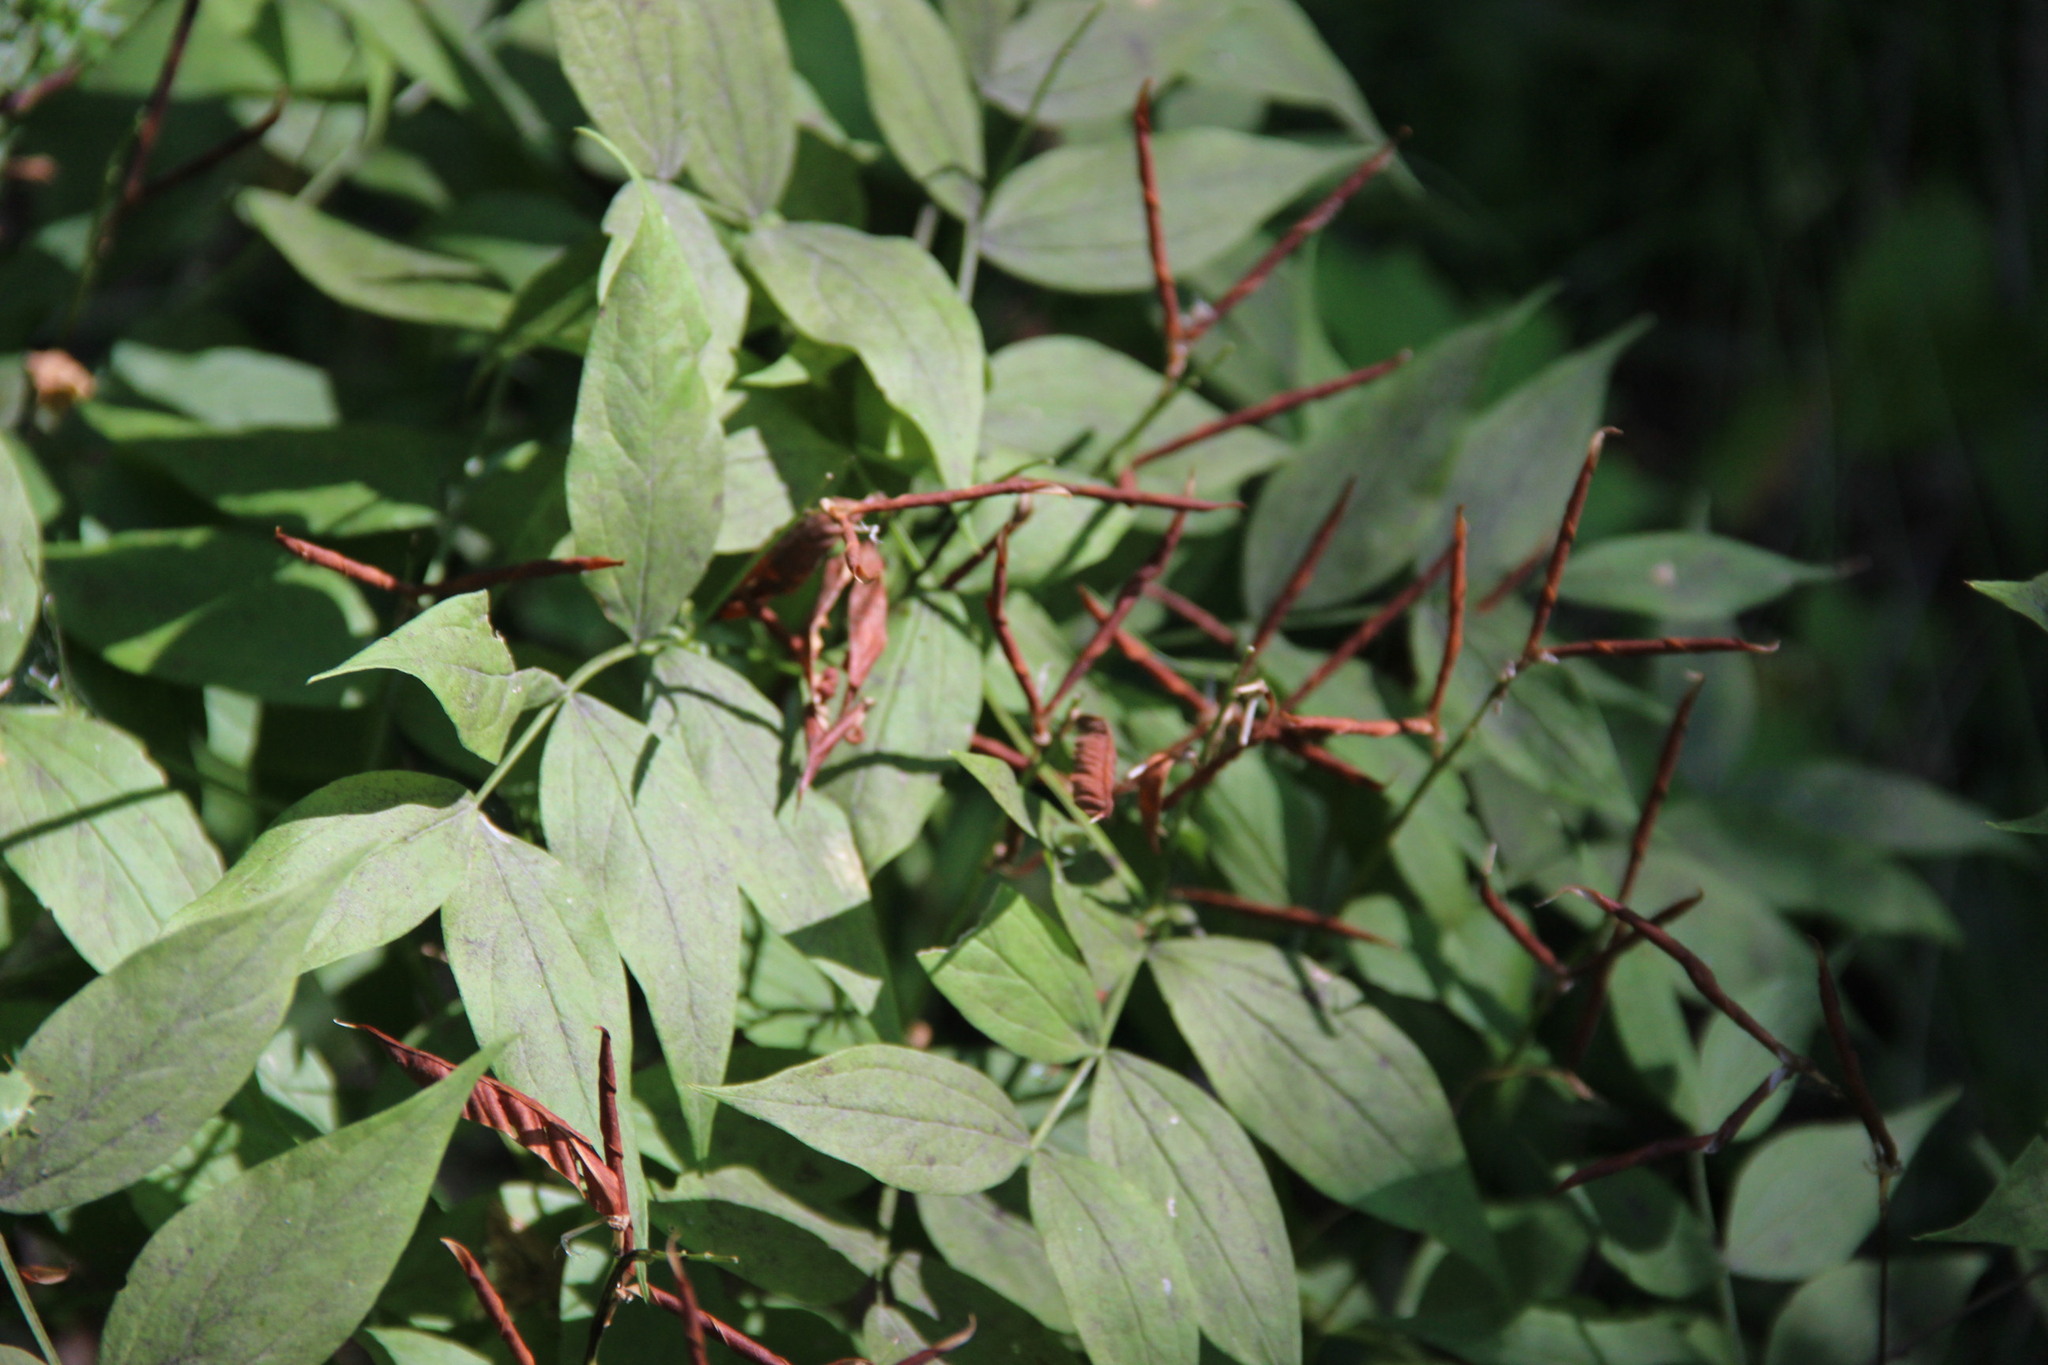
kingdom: Plantae
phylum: Tracheophyta
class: Magnoliopsida
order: Fabales
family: Fabaceae
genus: Lathyrus
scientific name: Lathyrus vernus
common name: Spring pea
